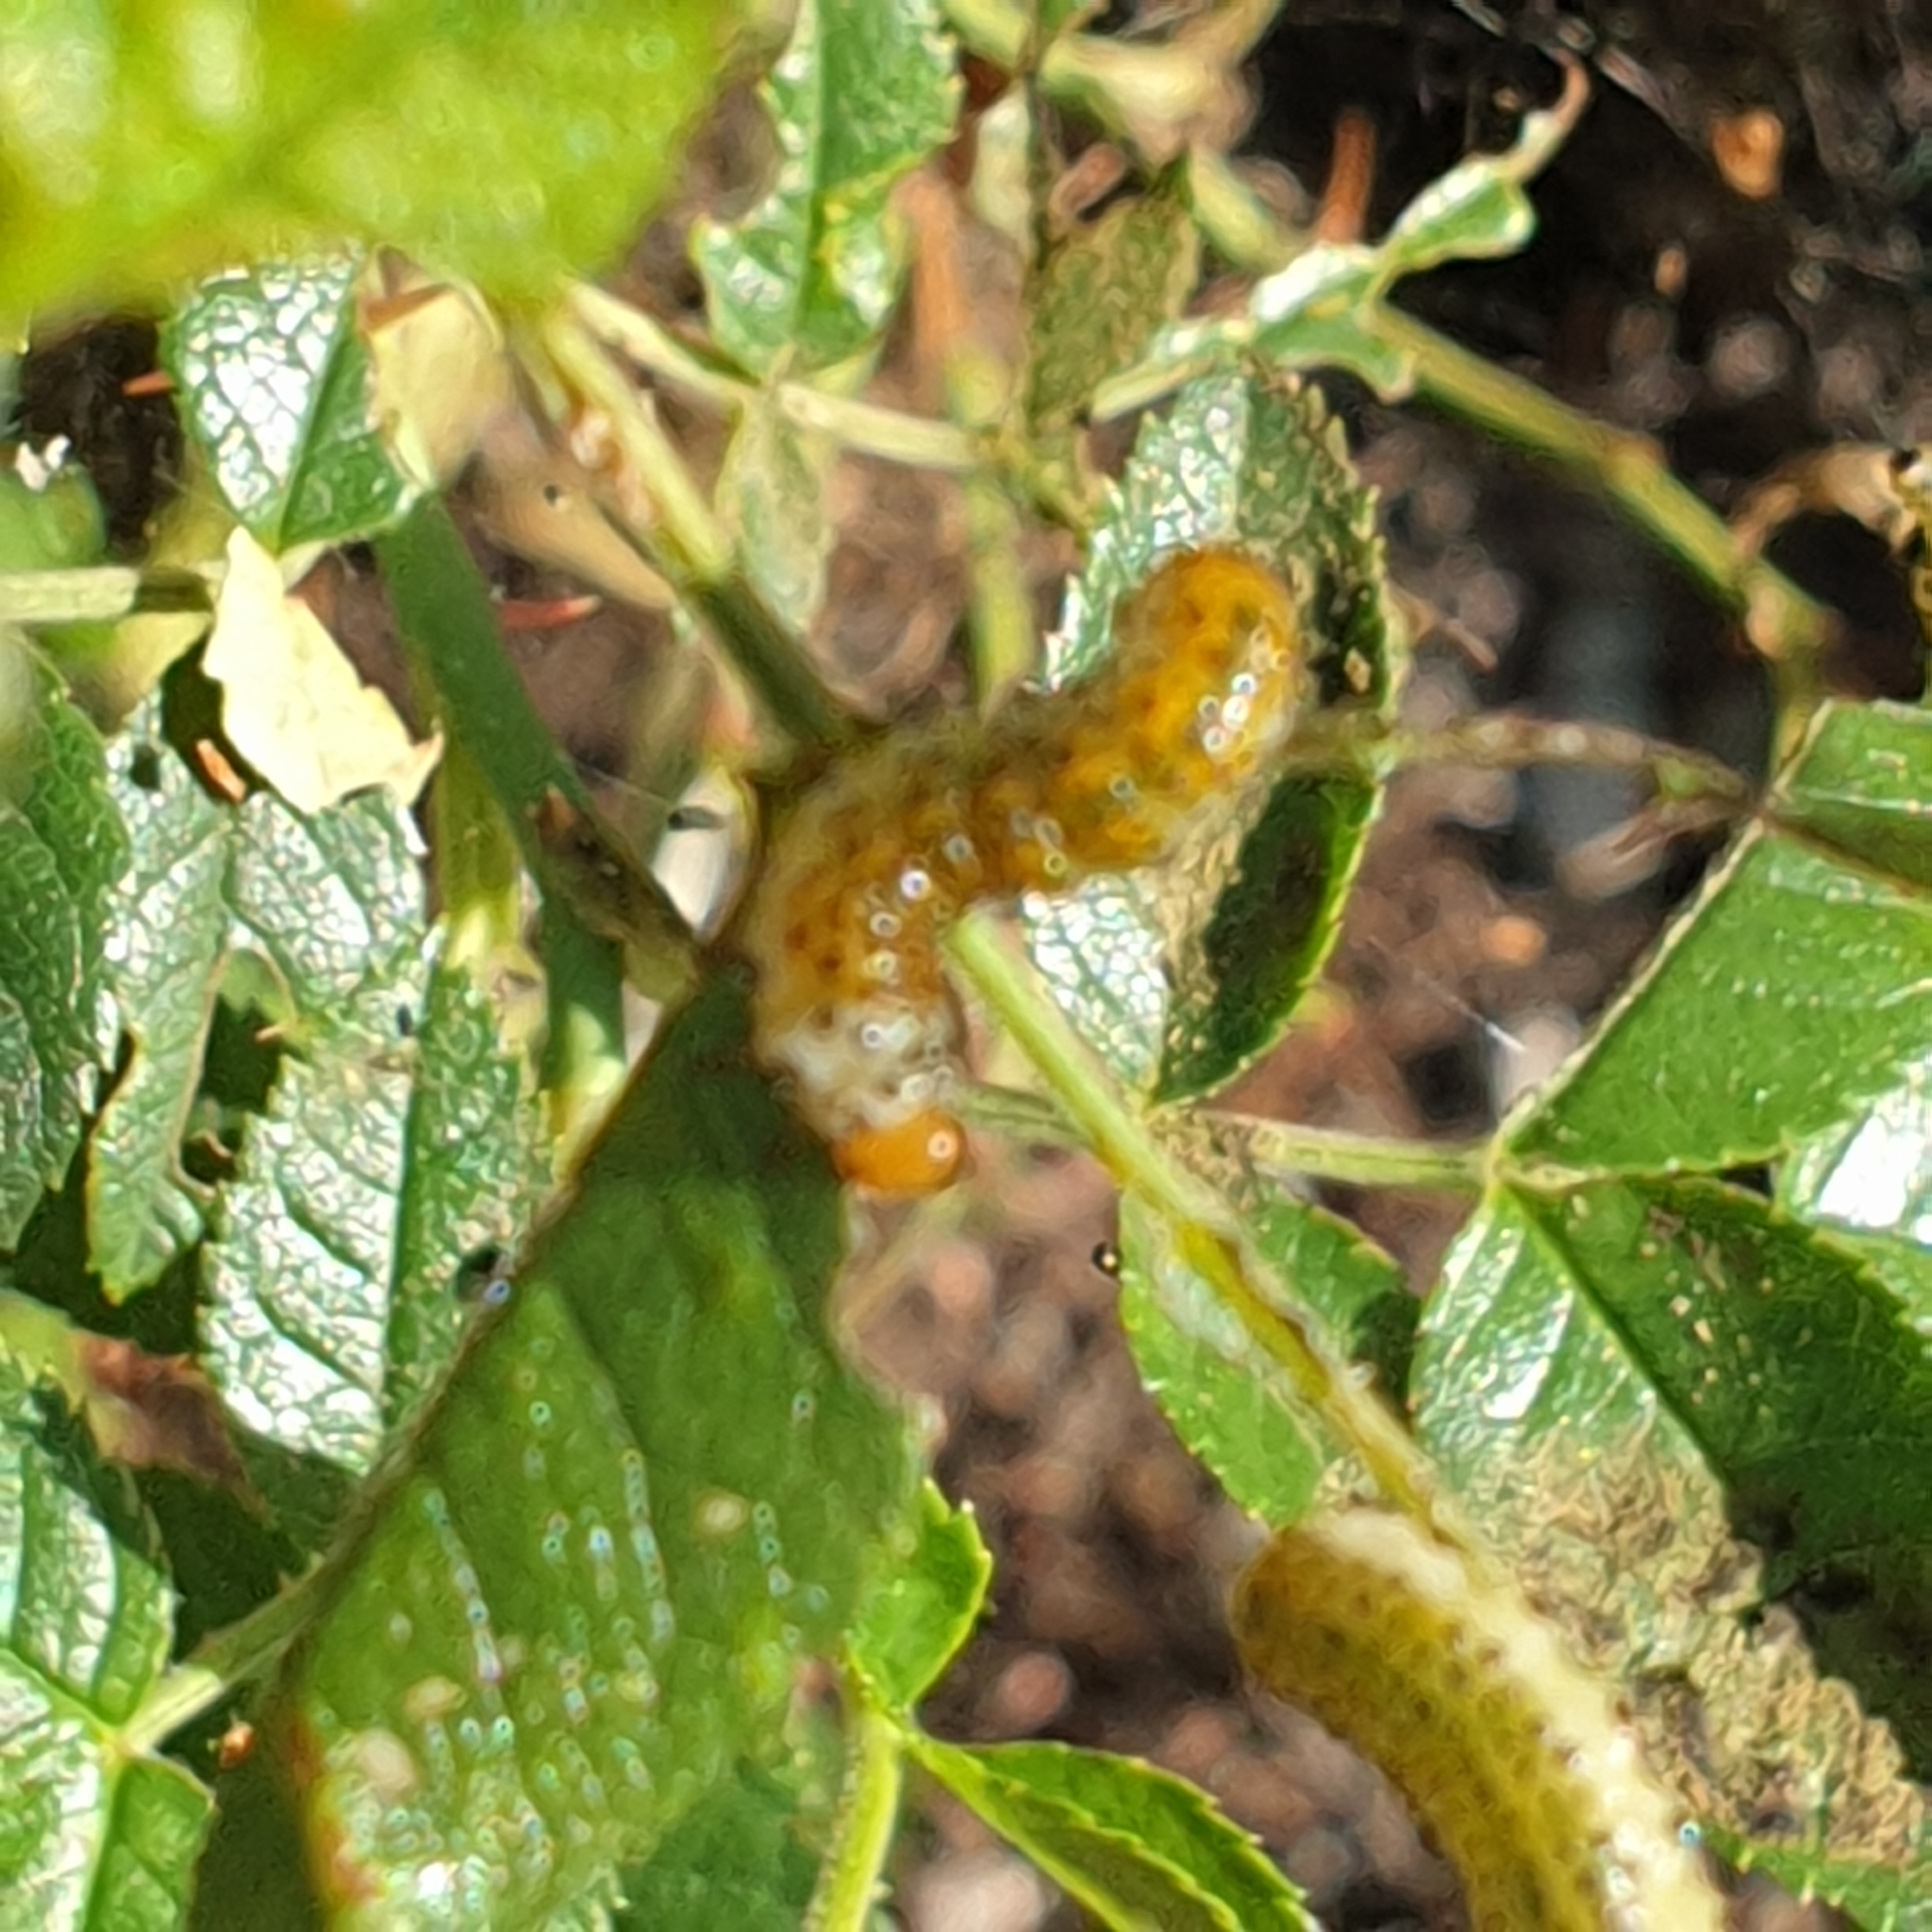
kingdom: Animalia
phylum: Arthropoda
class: Insecta
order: Hymenoptera
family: Argidae
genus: Arge
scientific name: Arge ochropus
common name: Argid sawfly
